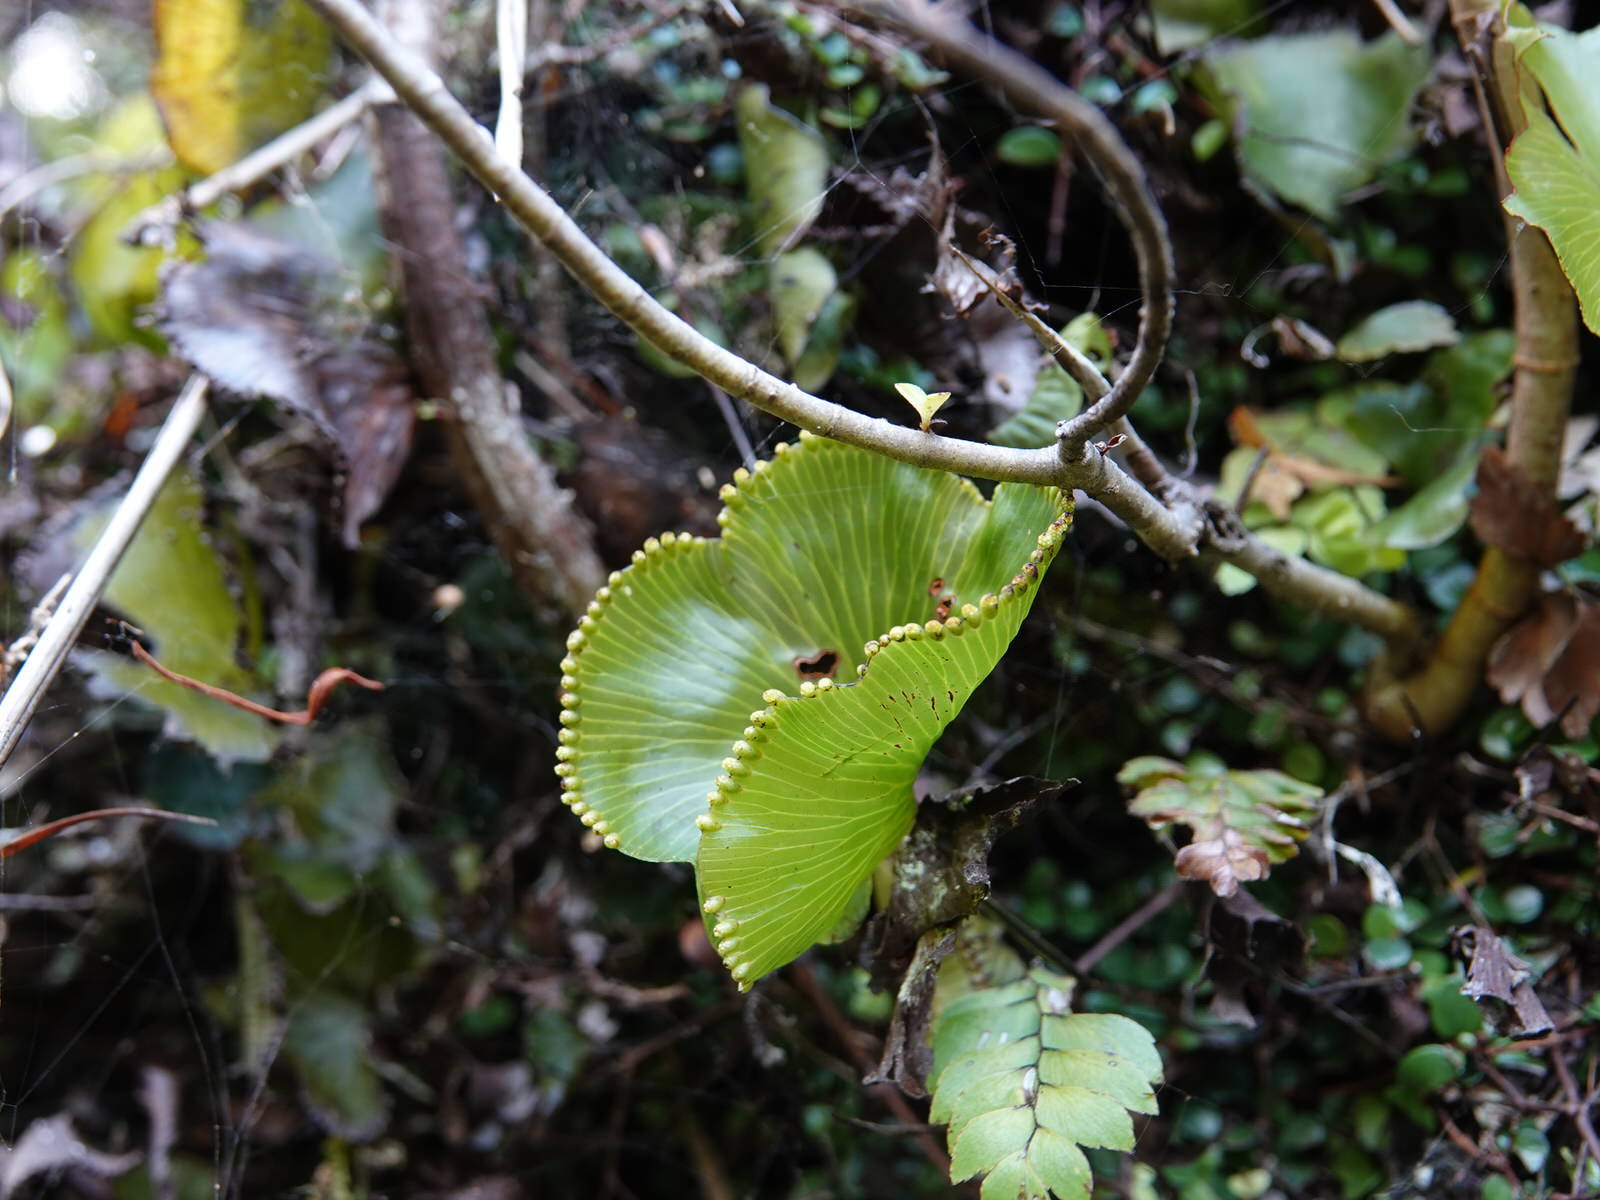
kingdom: Plantae
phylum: Tracheophyta
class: Polypodiopsida
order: Hymenophyllales
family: Hymenophyllaceae
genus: Hymenophyllum
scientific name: Hymenophyllum nephrophyllum
